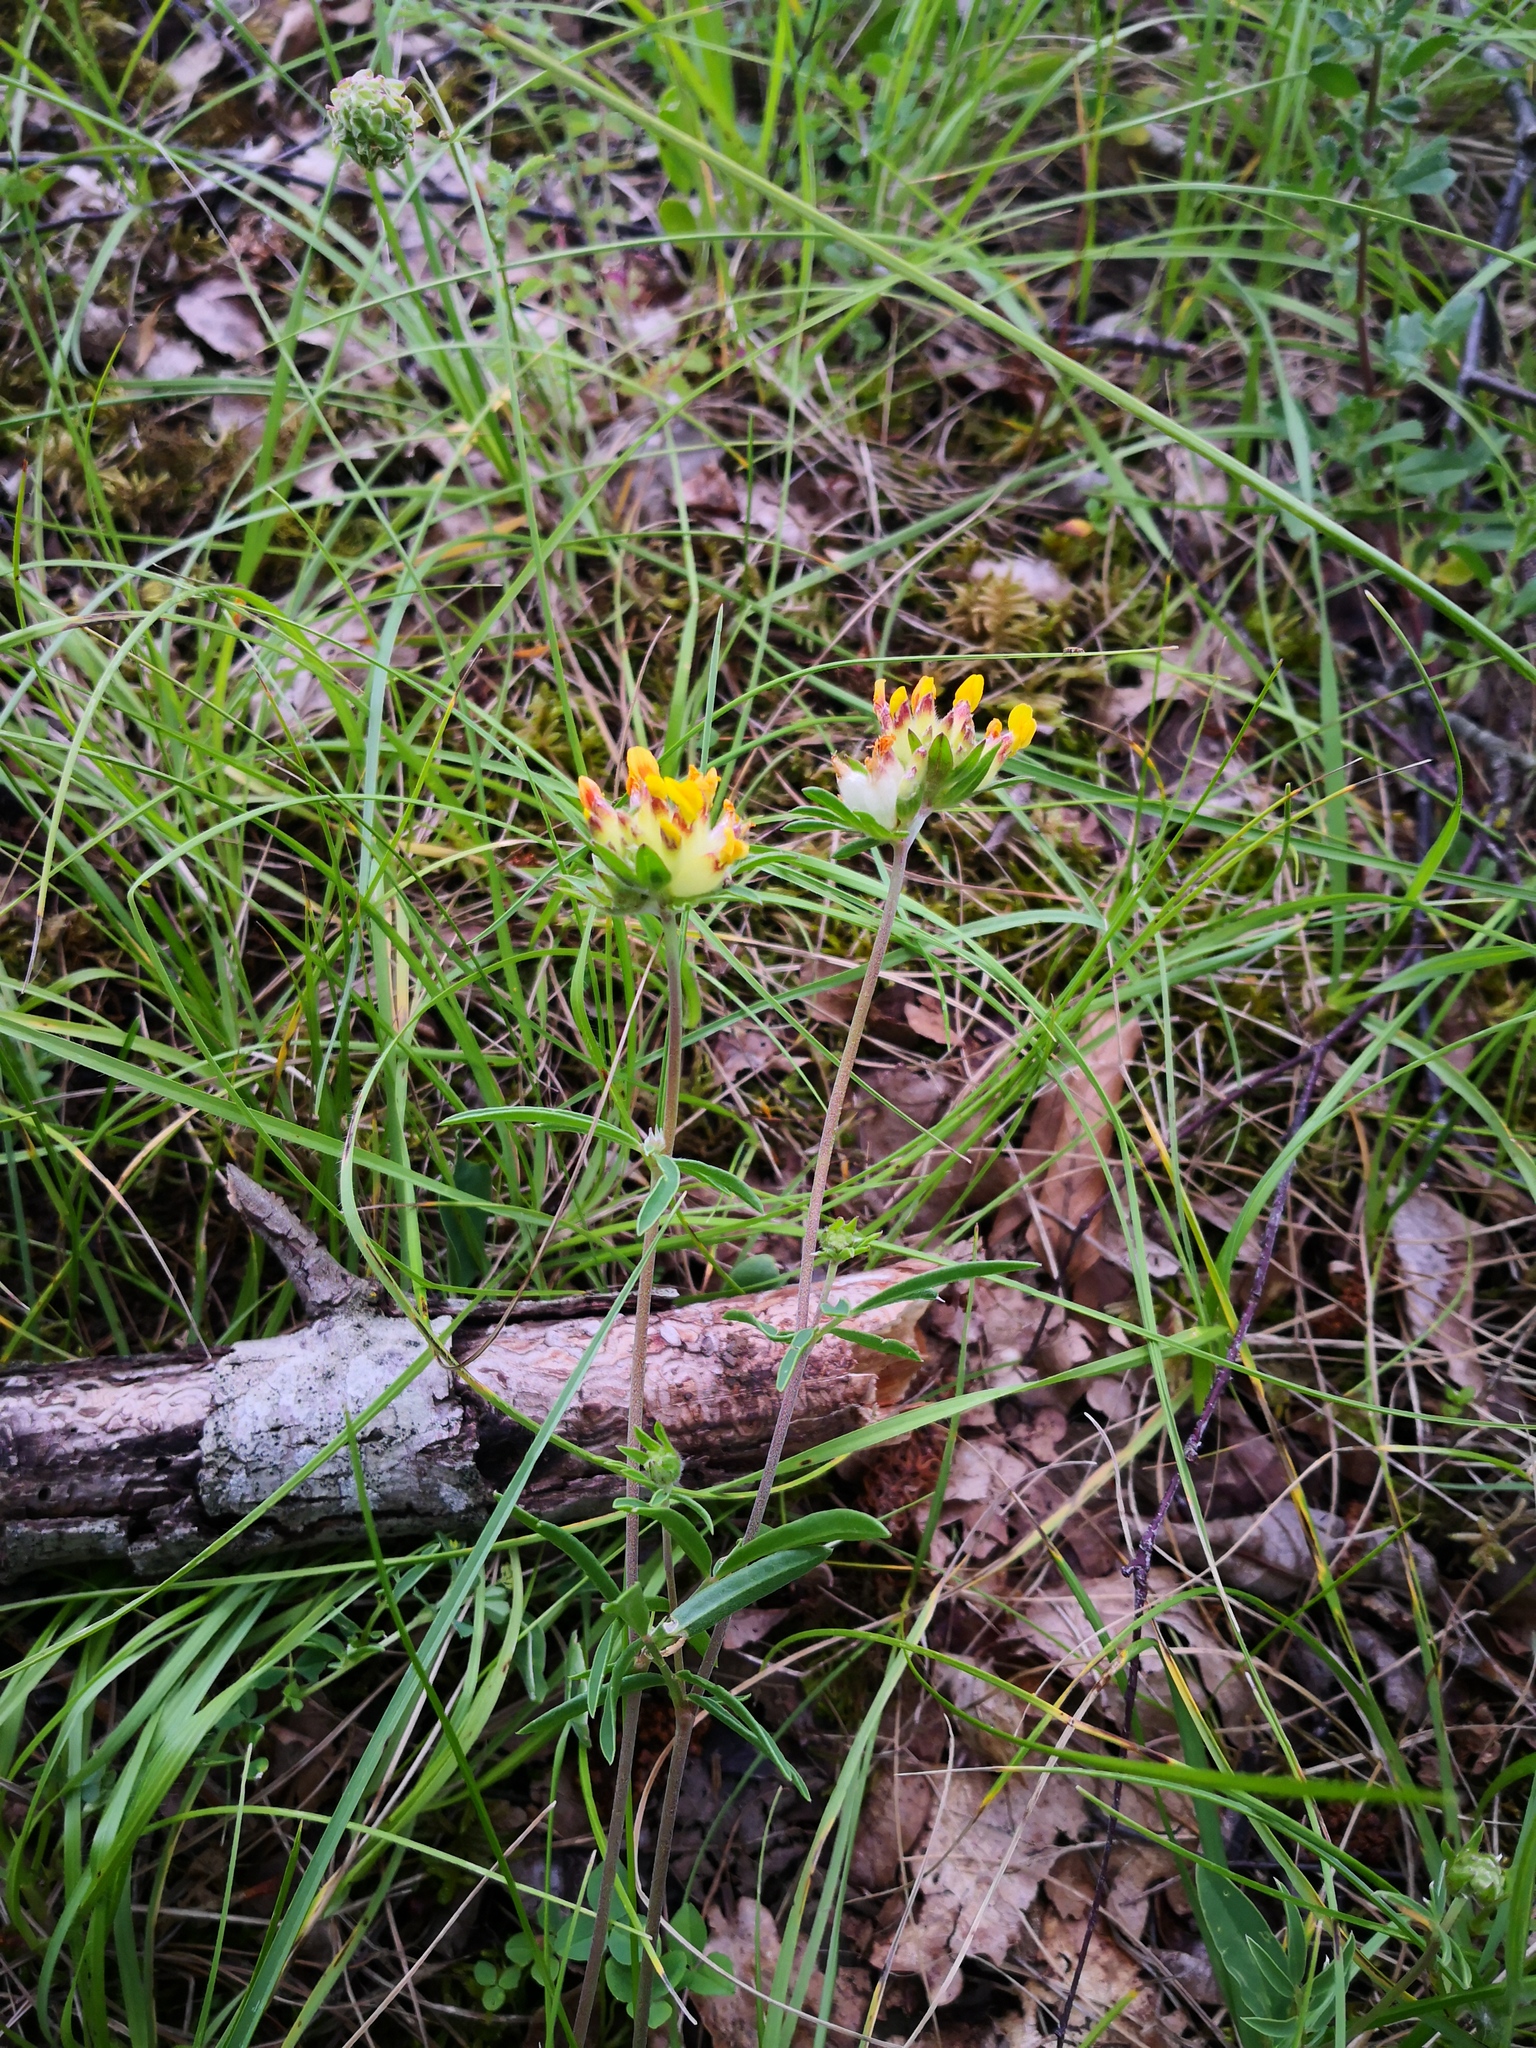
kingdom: Plantae
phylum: Tracheophyta
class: Magnoliopsida
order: Fabales
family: Fabaceae
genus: Anthyllis
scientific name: Anthyllis vulneraria
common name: Kidney vetch
